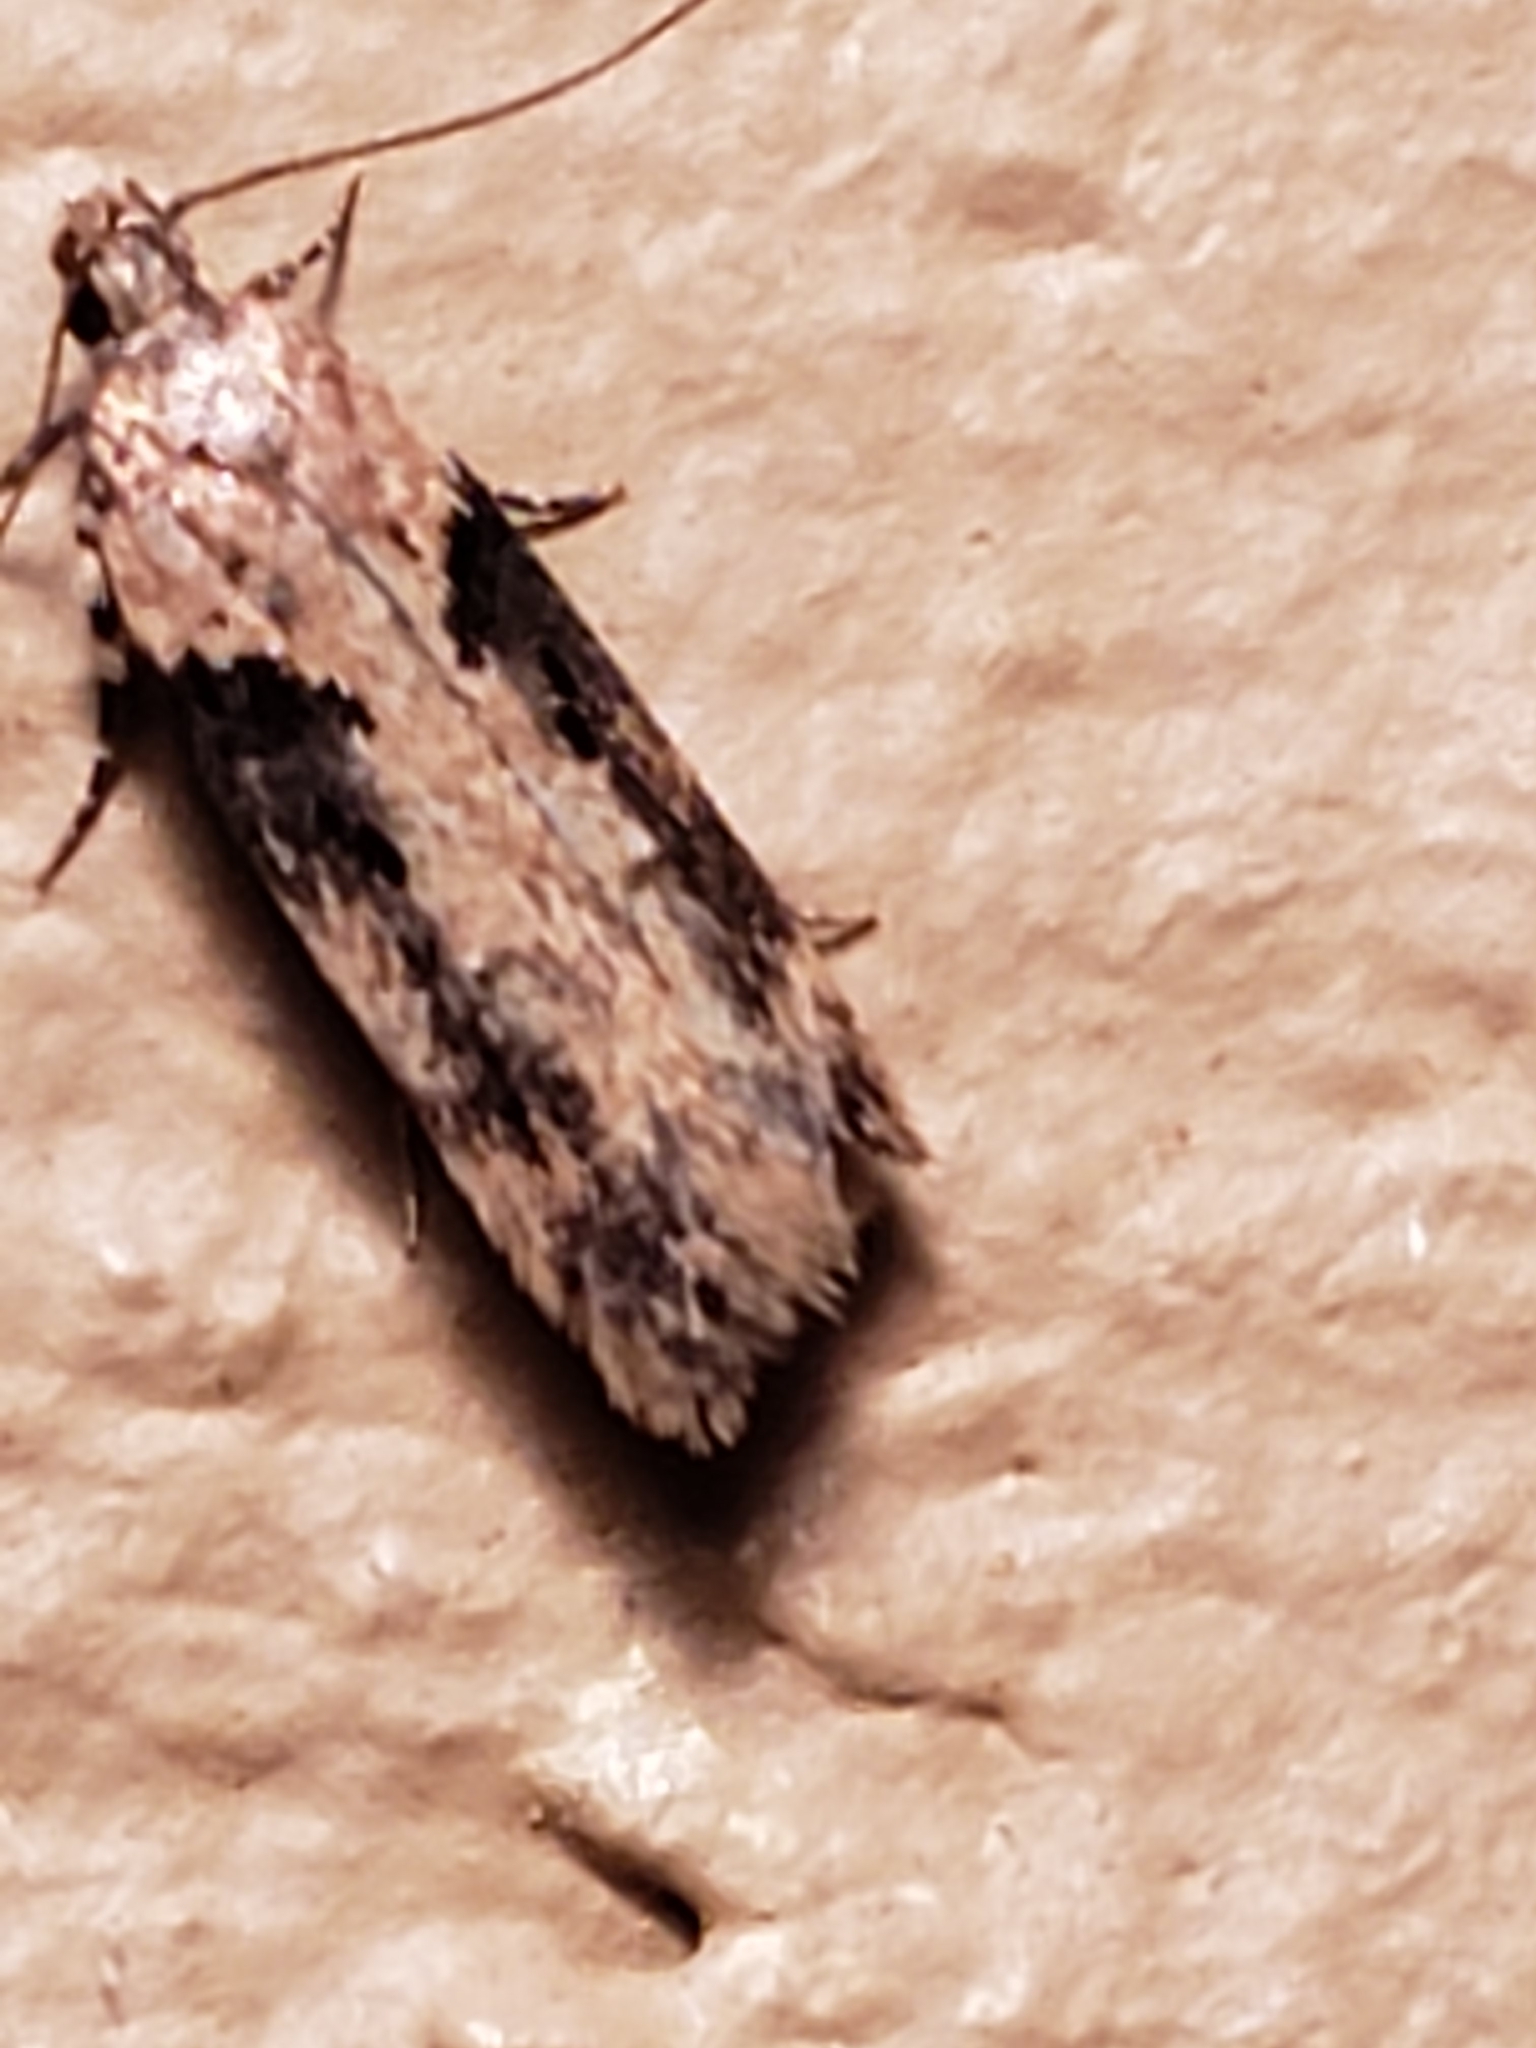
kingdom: Animalia
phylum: Arthropoda
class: Insecta
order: Lepidoptera
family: Gelechiidae
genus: Chionodes
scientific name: Chionodes mediofuscella
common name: Black-smudged chionodes moth
